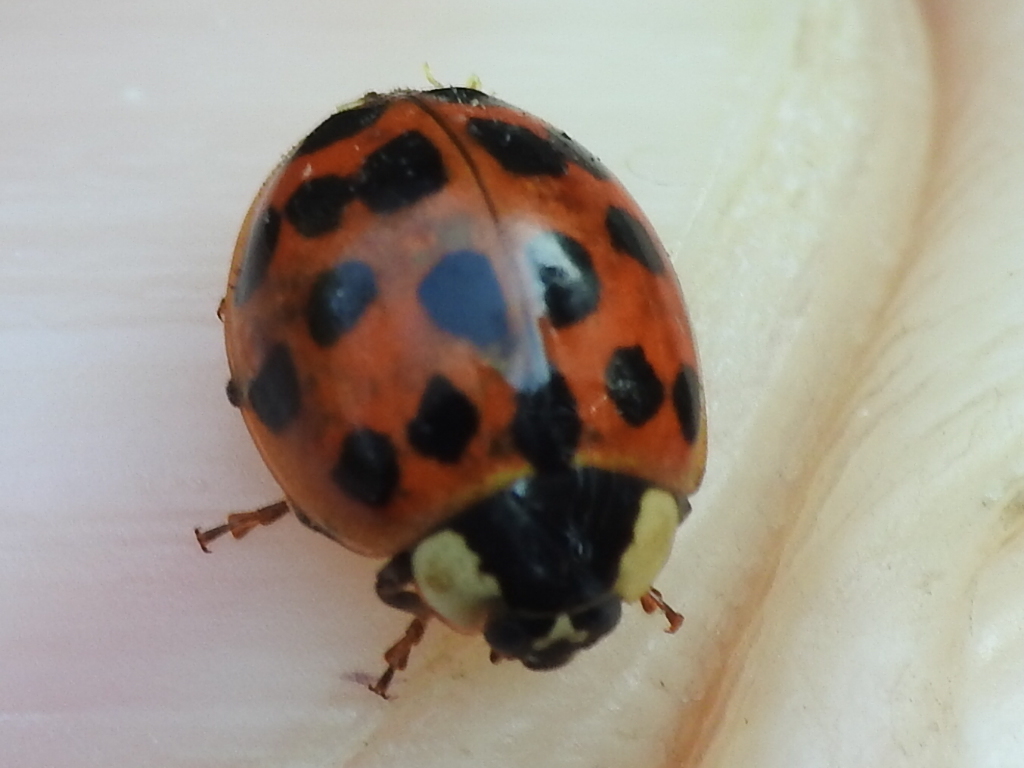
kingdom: Animalia
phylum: Arthropoda
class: Insecta
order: Coleoptera
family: Coccinellidae
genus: Harmonia
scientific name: Harmonia axyridis
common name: Harlequin ladybird
